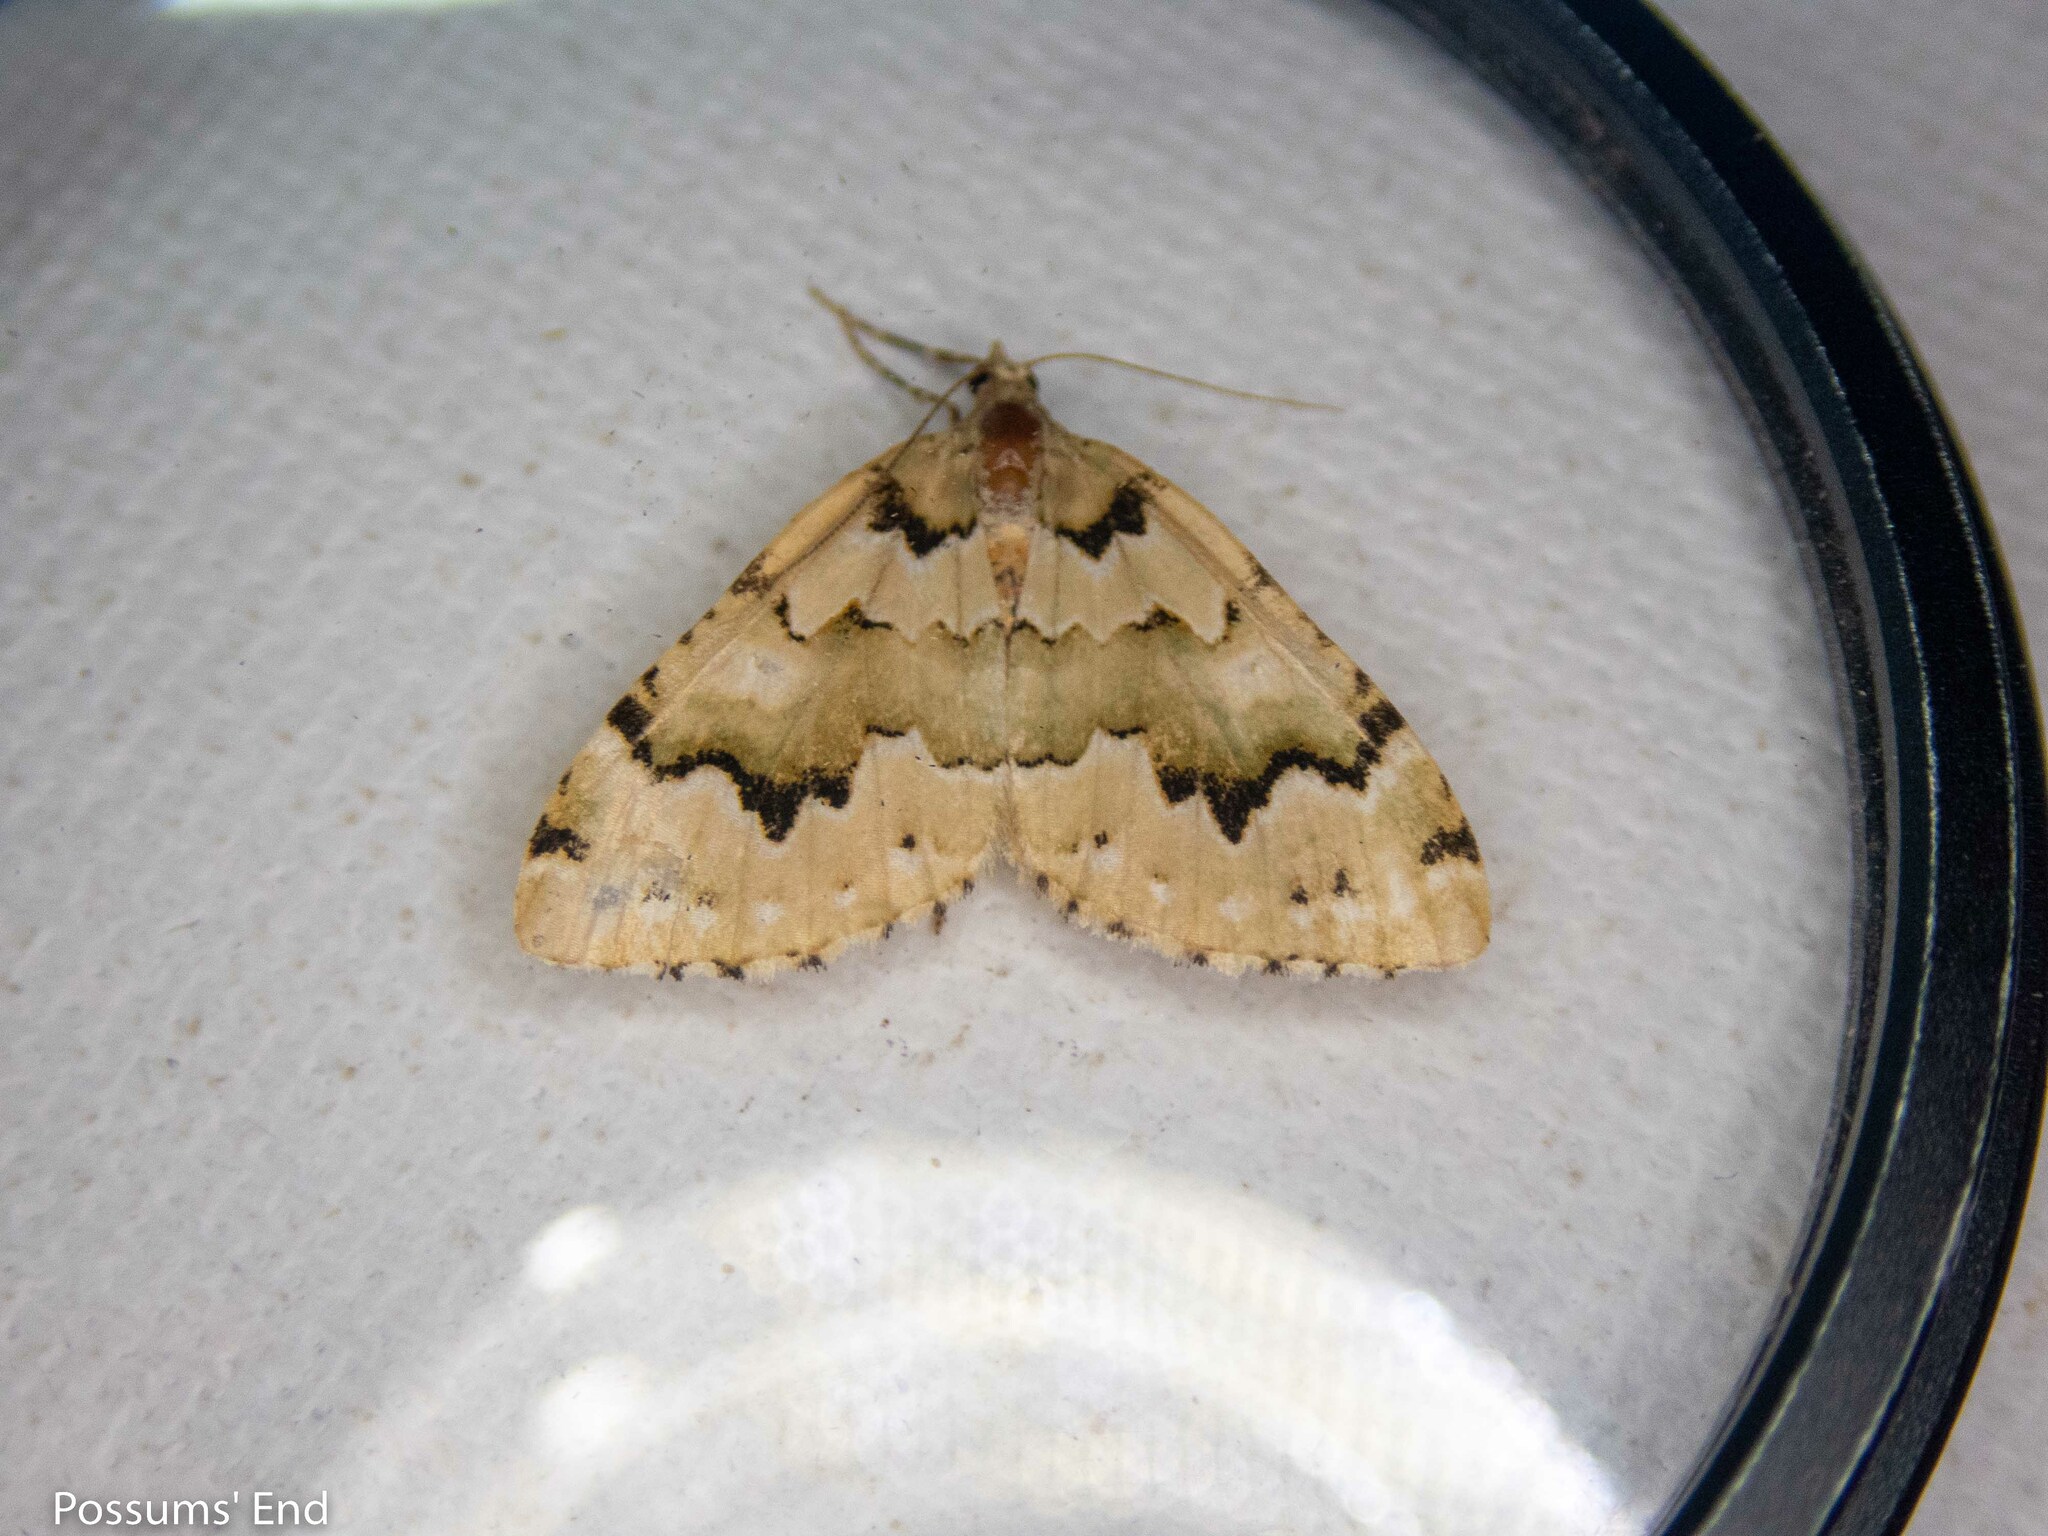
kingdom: Animalia
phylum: Arthropoda
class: Insecta
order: Lepidoptera
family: Geometridae
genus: Asaphodes
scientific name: Asaphodes adonis
